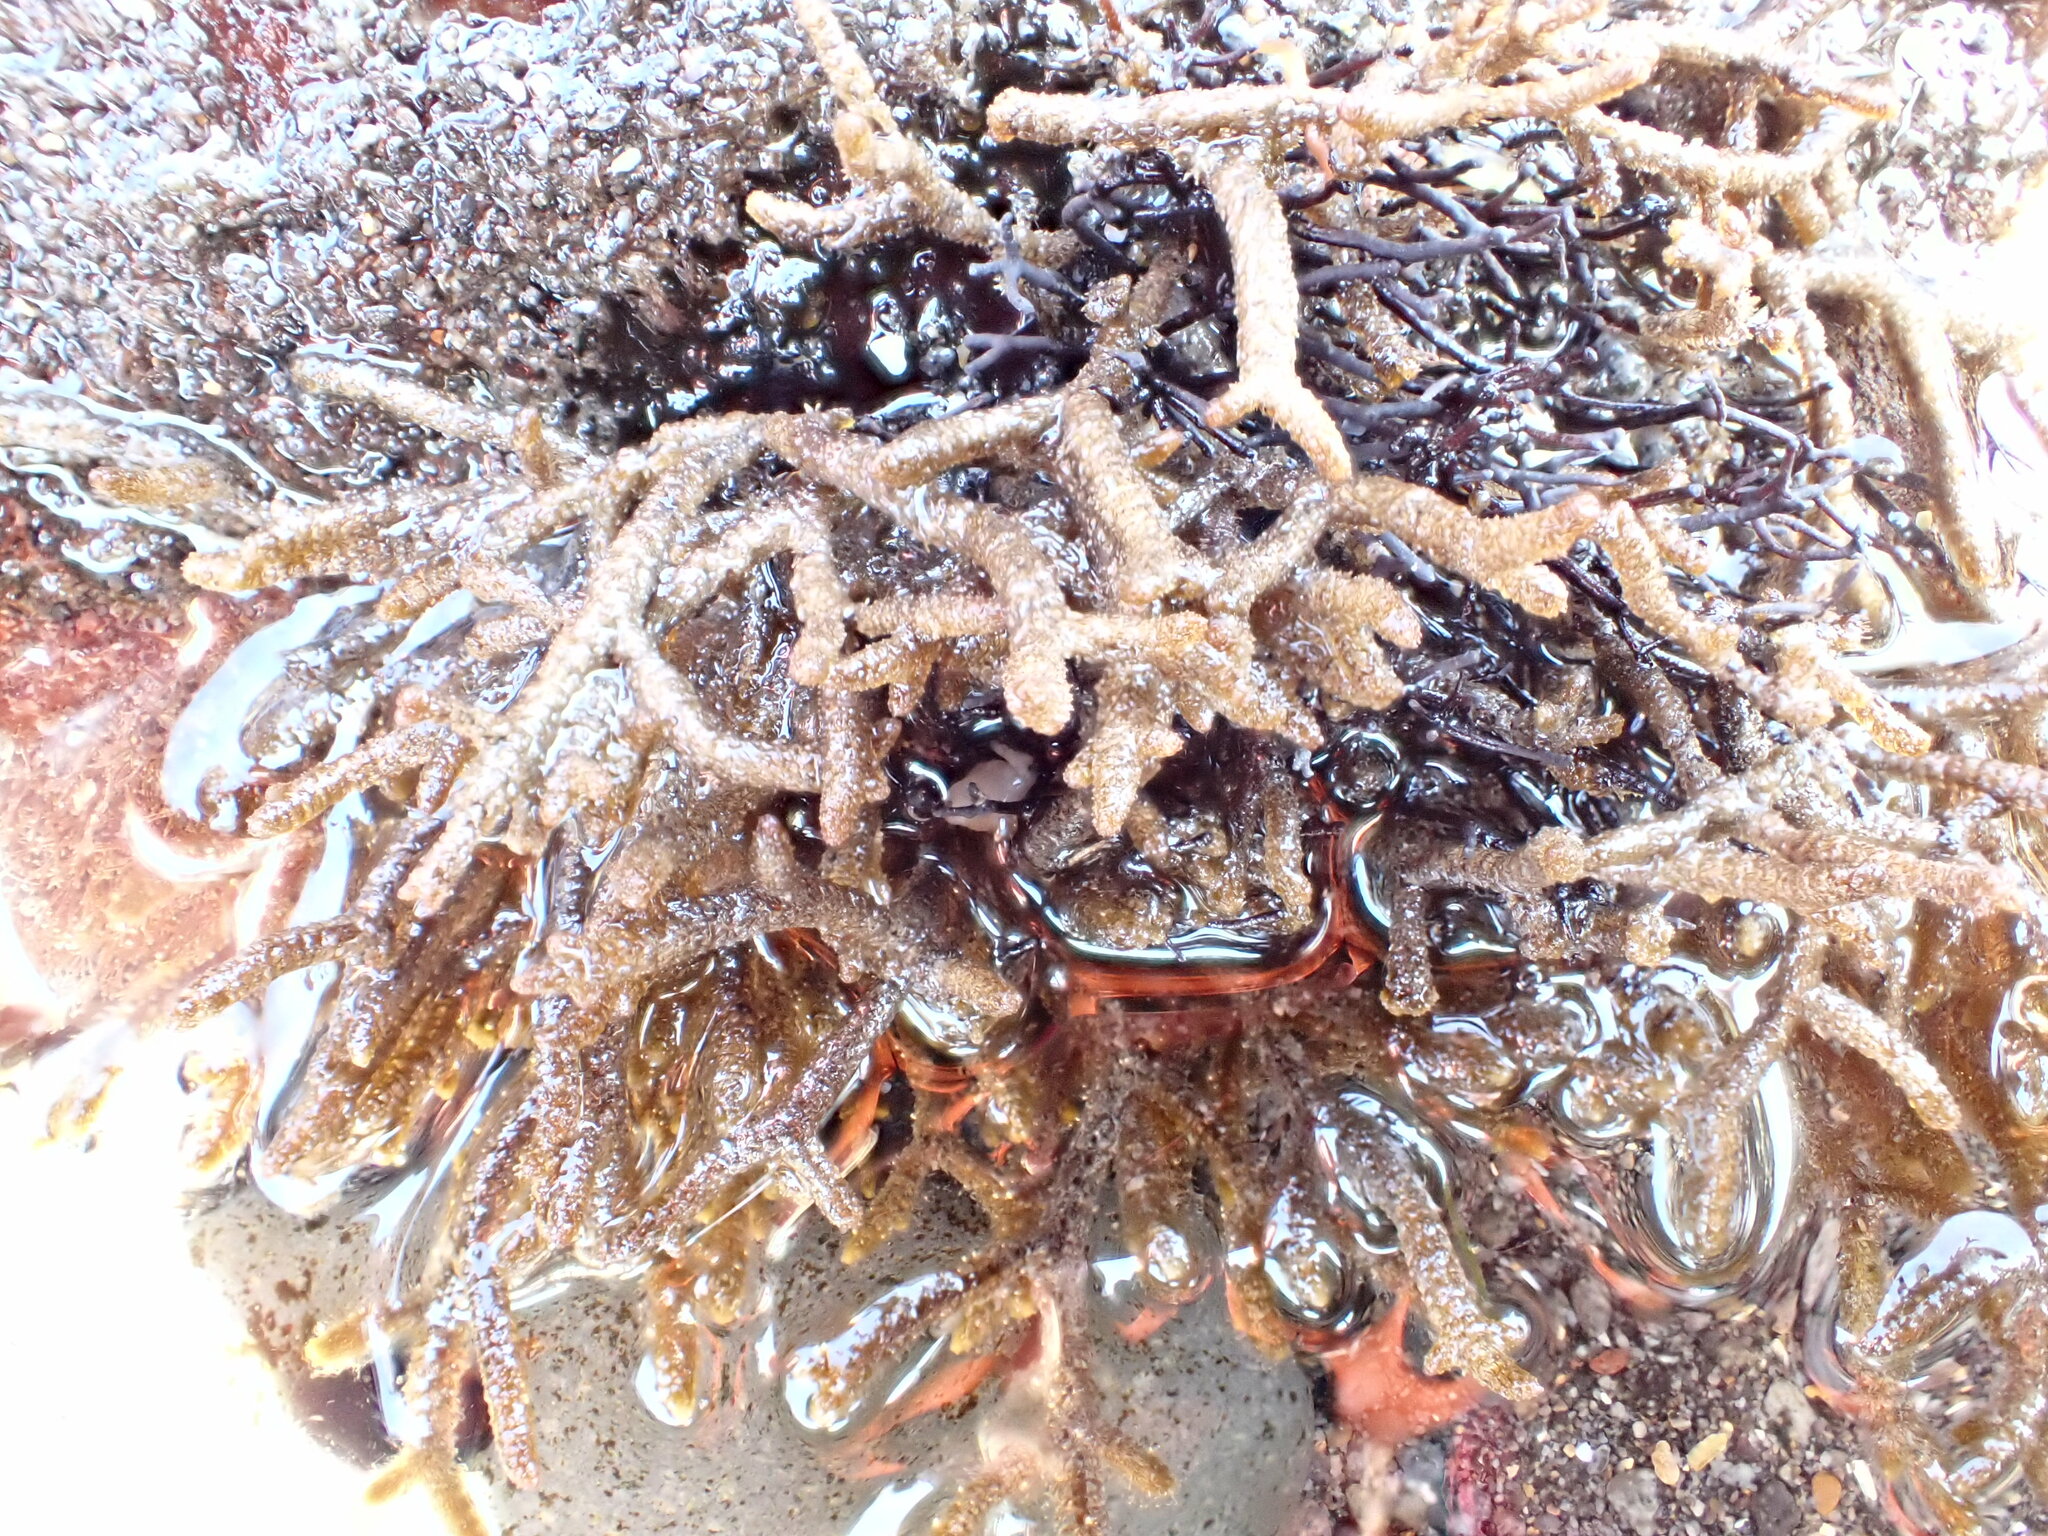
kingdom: Chromista
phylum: Ochrophyta
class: Phaeophyceae
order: Sphacelariales
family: Cladostephaceae
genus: Cladostephus
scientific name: Cladostephus hirsutus
